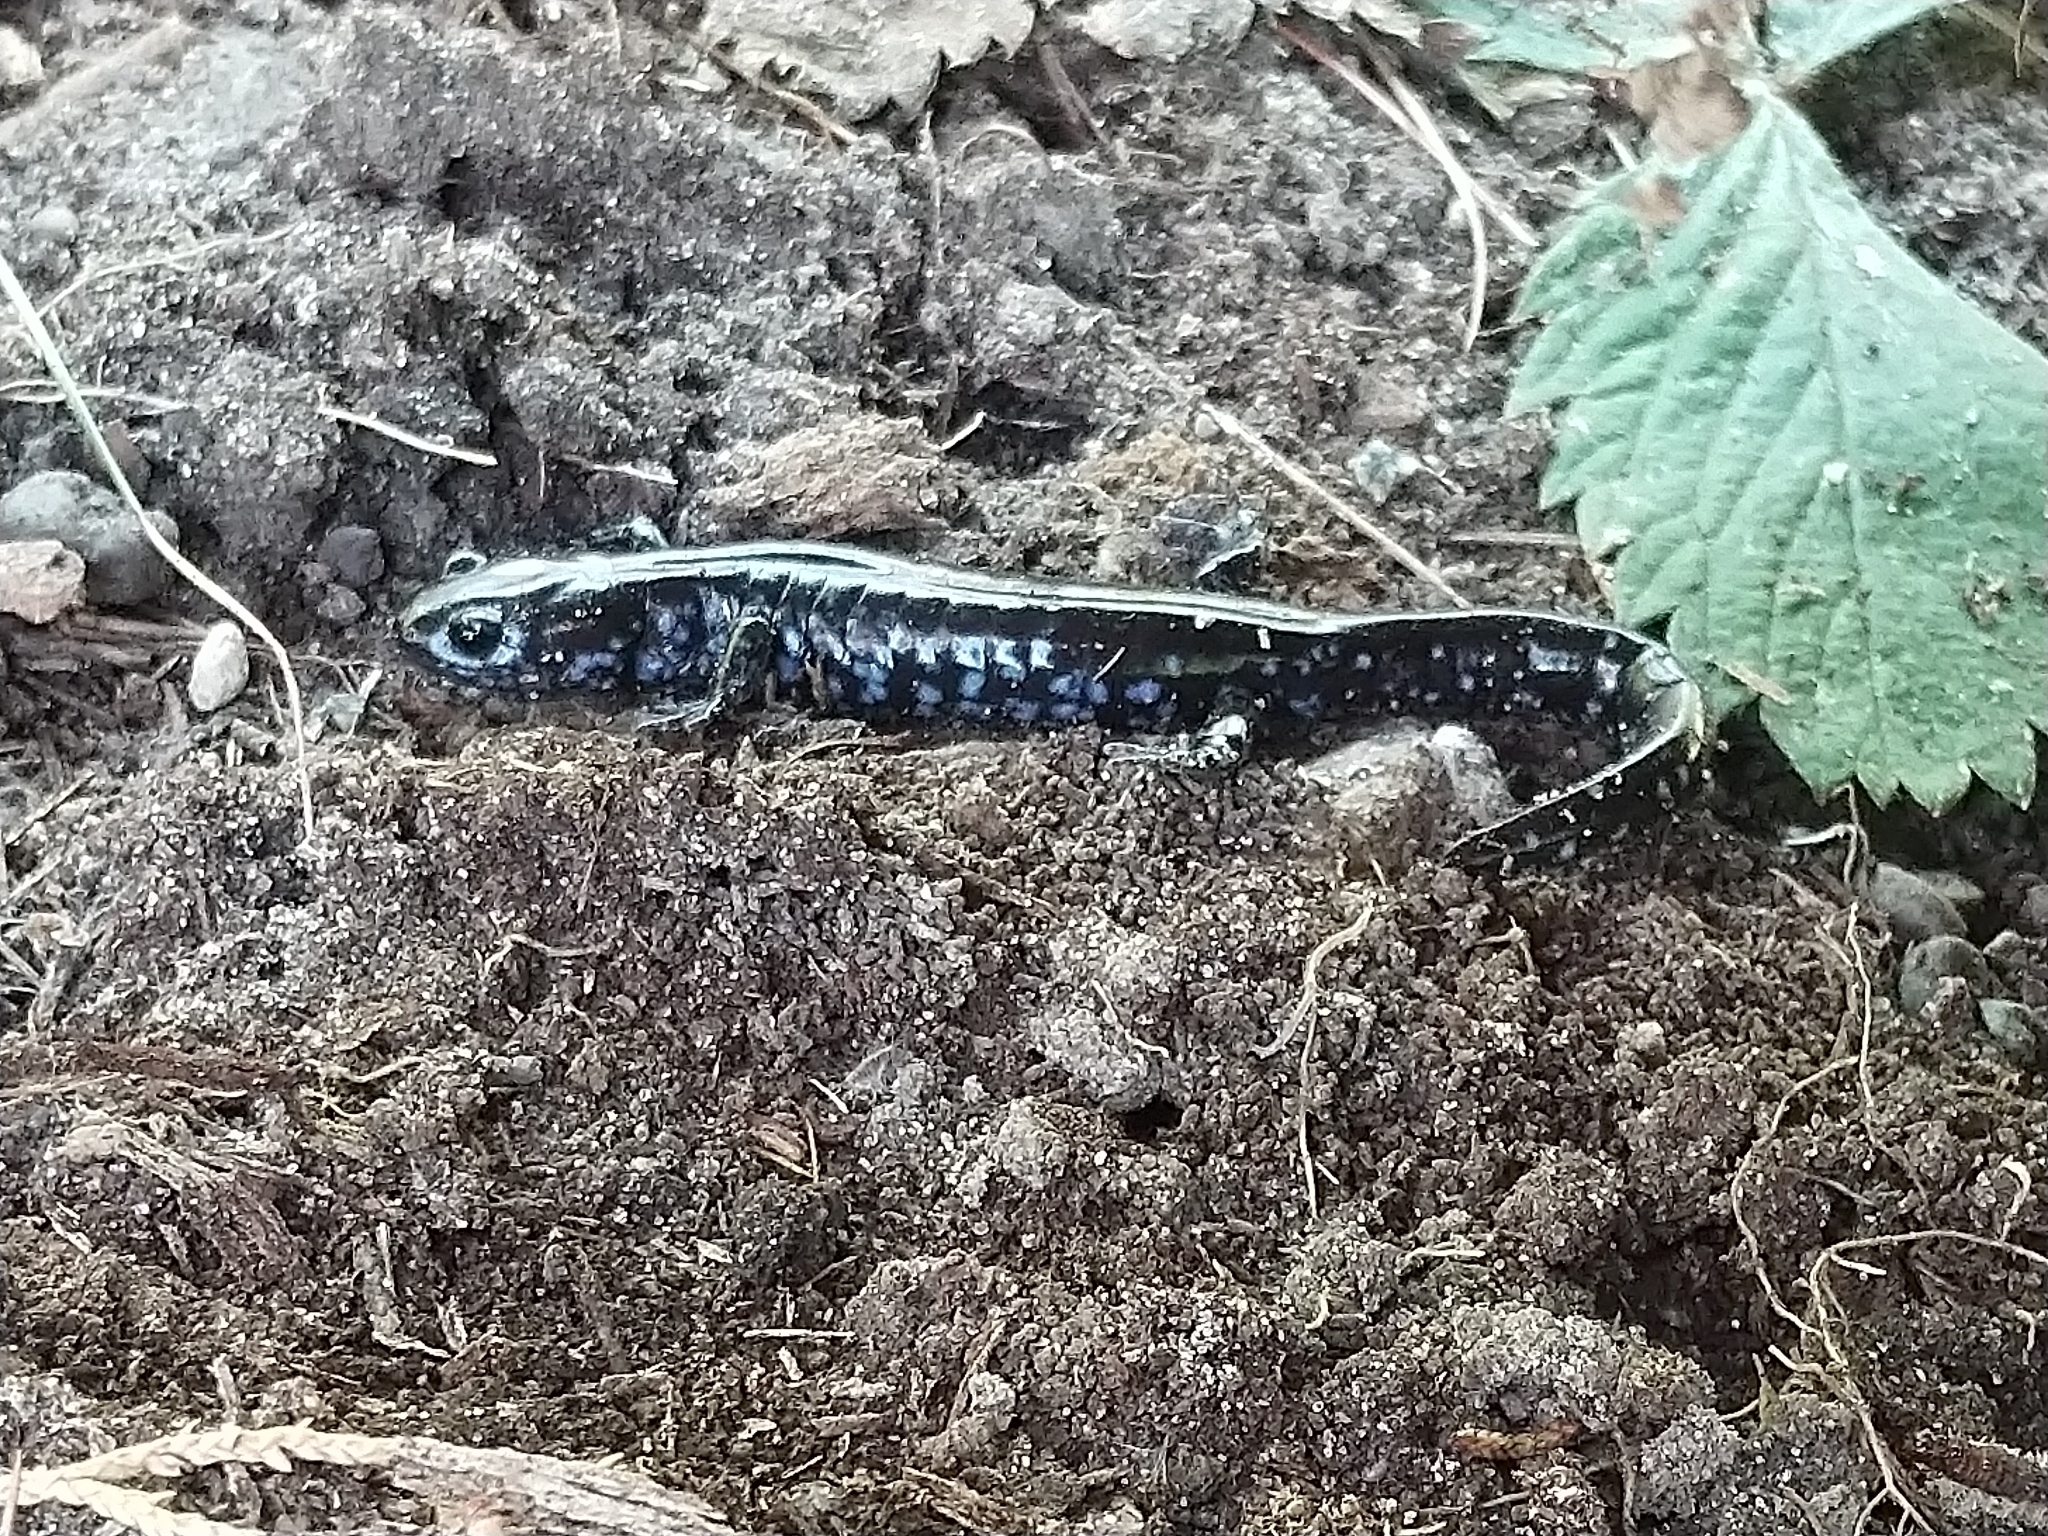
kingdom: Animalia
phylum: Chordata
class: Amphibia
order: Caudata
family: Ambystomatidae
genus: Ambystoma
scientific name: Ambystoma laterale
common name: Blue-spotted salamander
